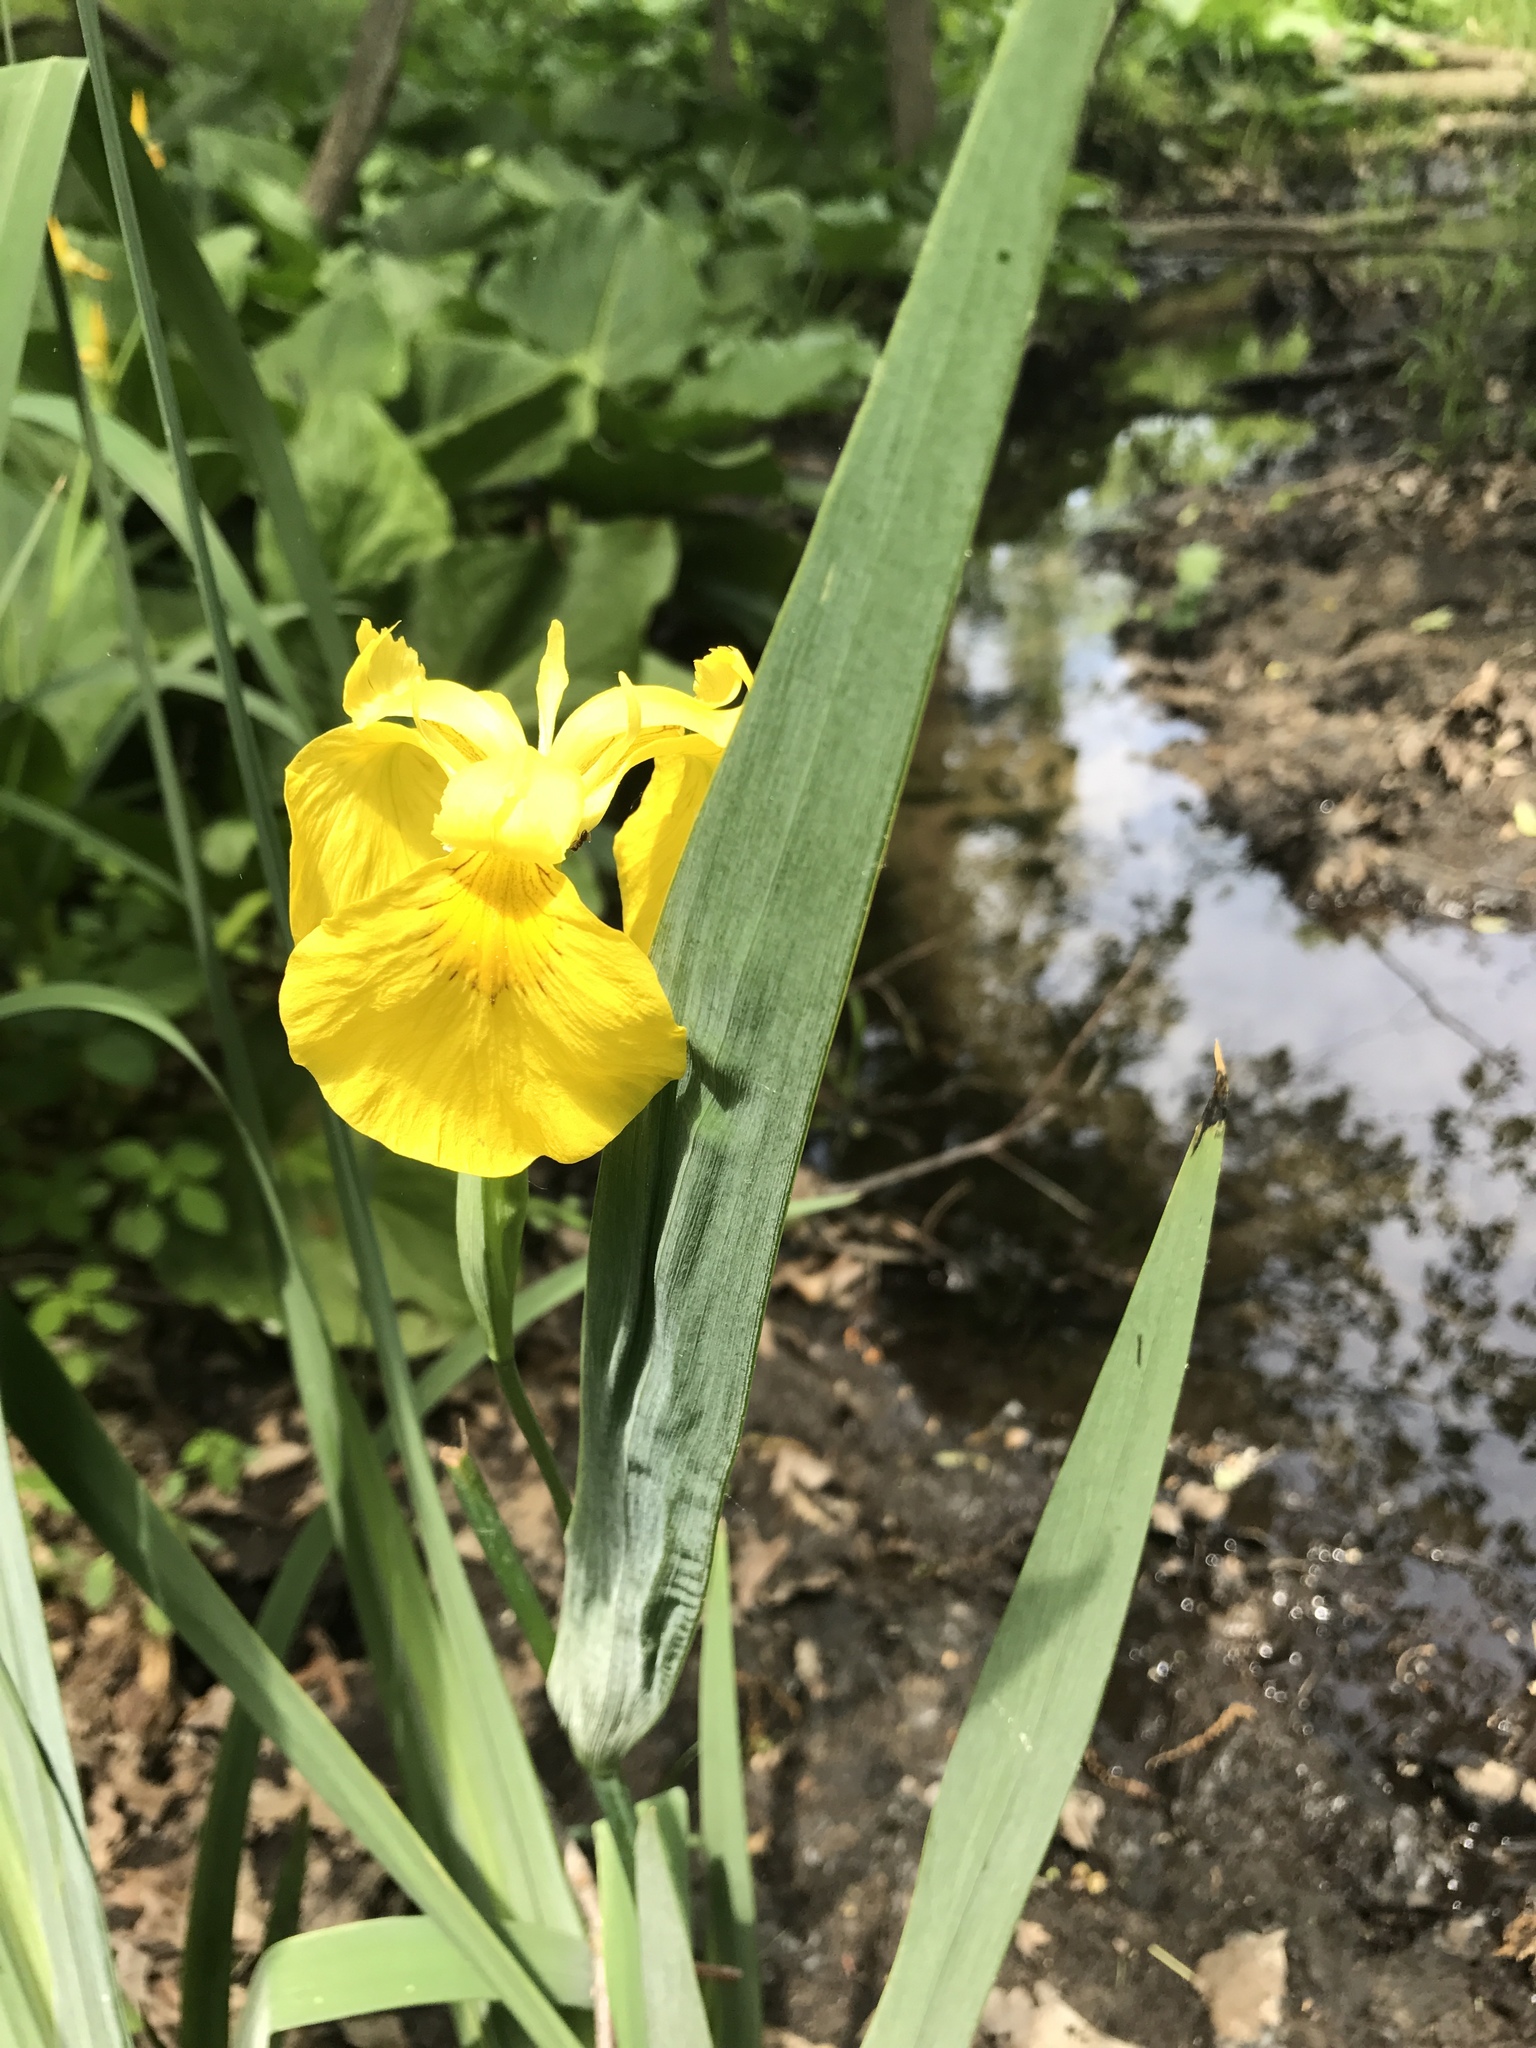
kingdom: Plantae
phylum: Tracheophyta
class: Liliopsida
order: Asparagales
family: Iridaceae
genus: Iris
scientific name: Iris pseudacorus
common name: Yellow flag
